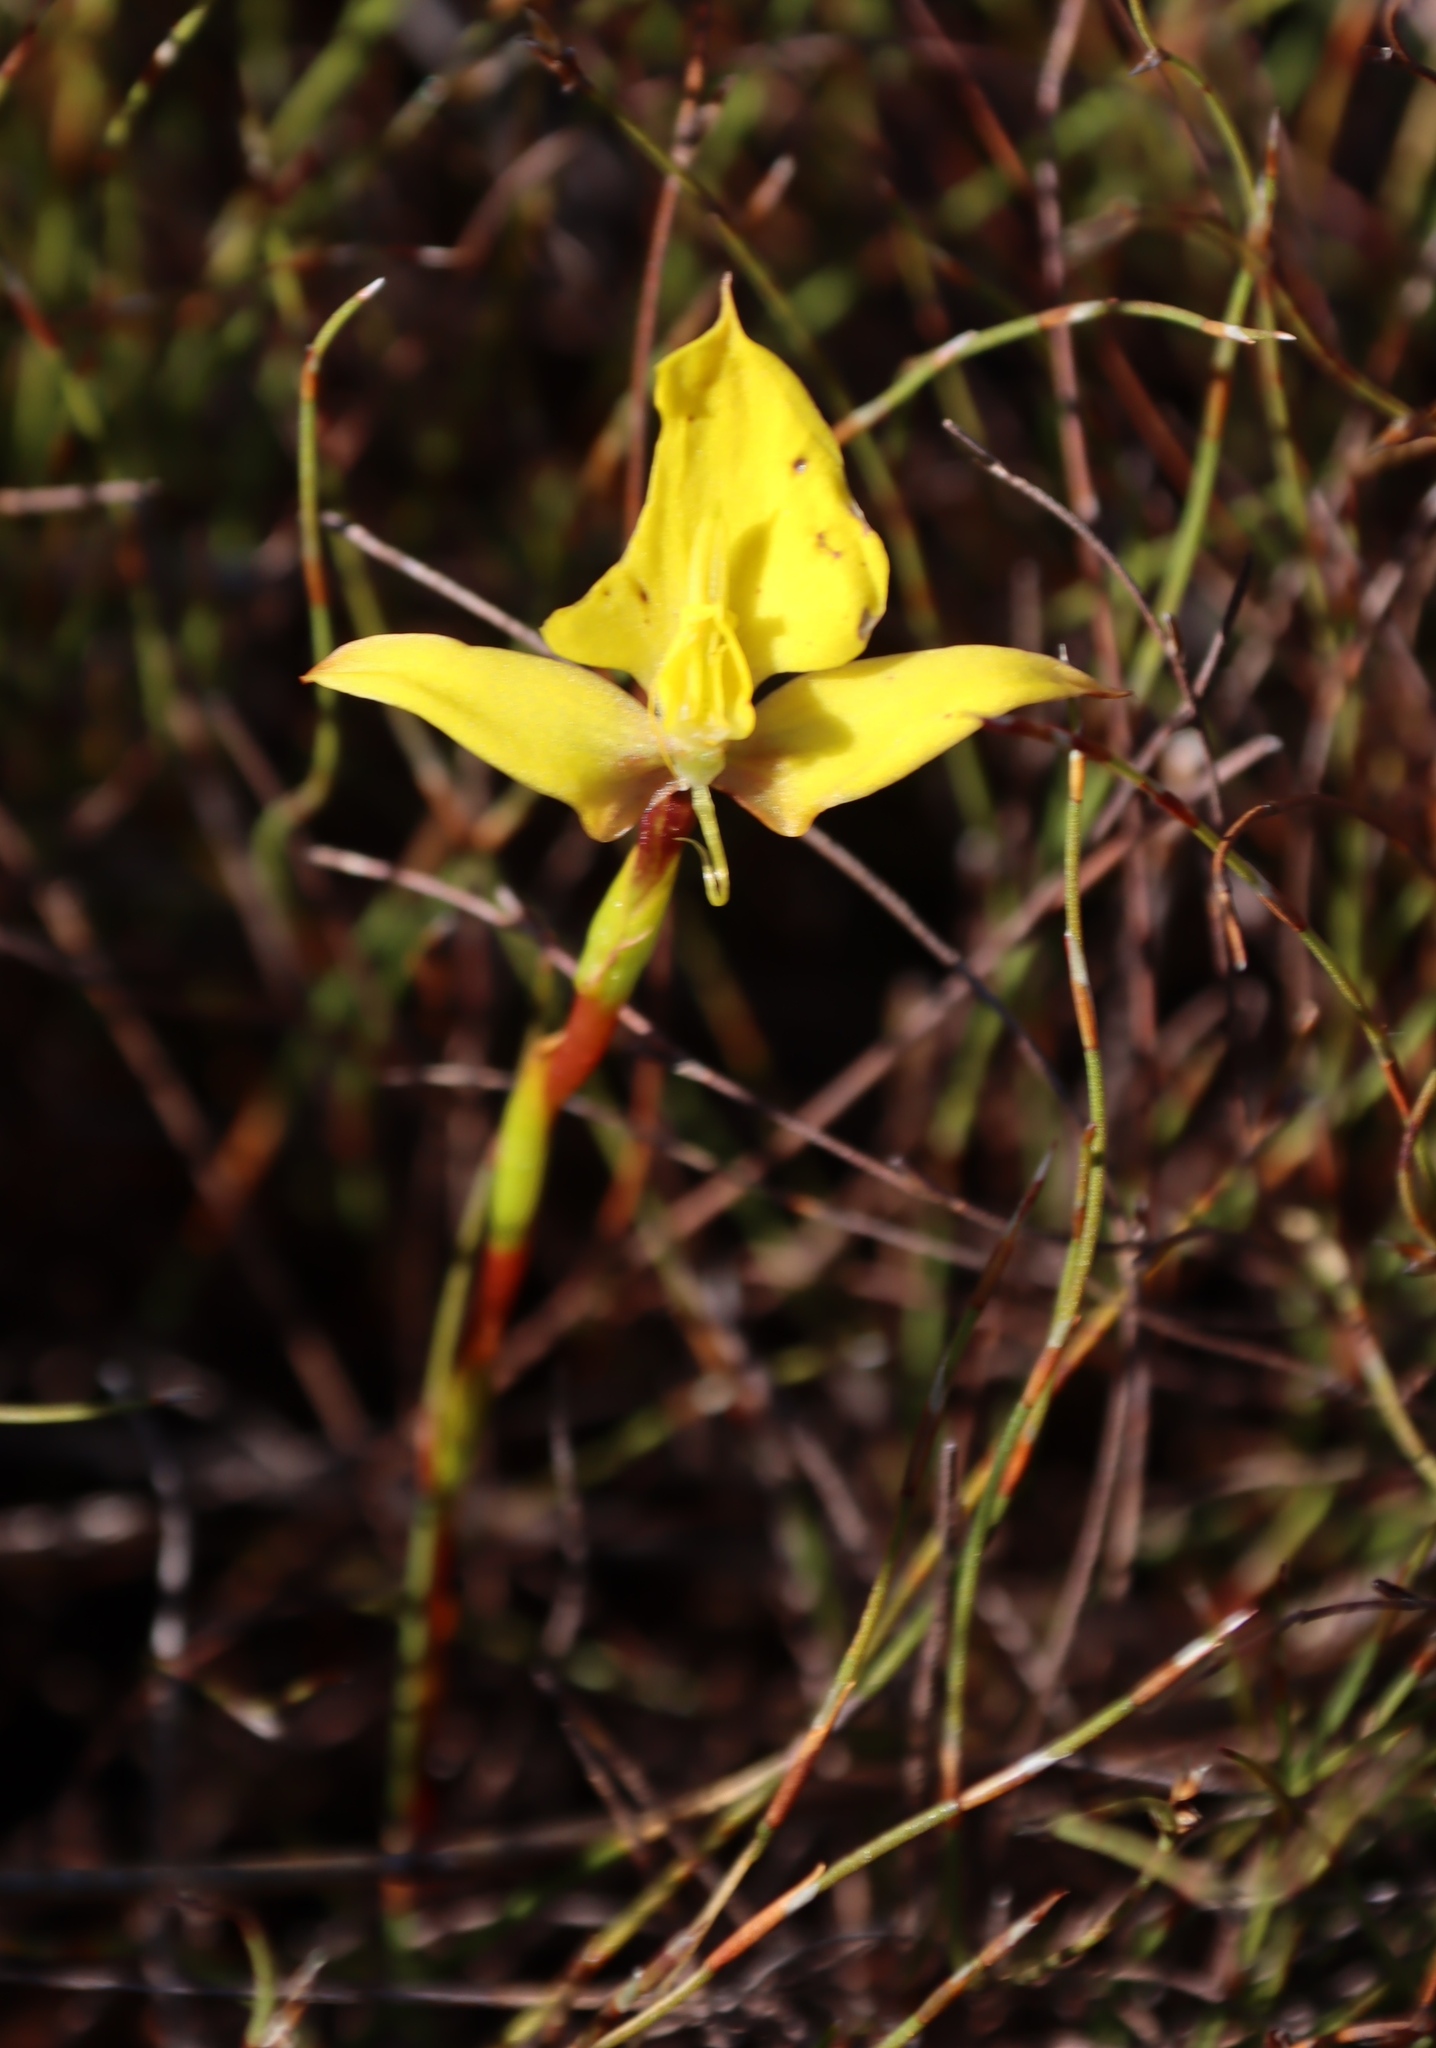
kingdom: Plantae
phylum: Tracheophyta
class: Liliopsida
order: Asparagales
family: Orchidaceae
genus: Disa
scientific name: Disa tenuifolia
